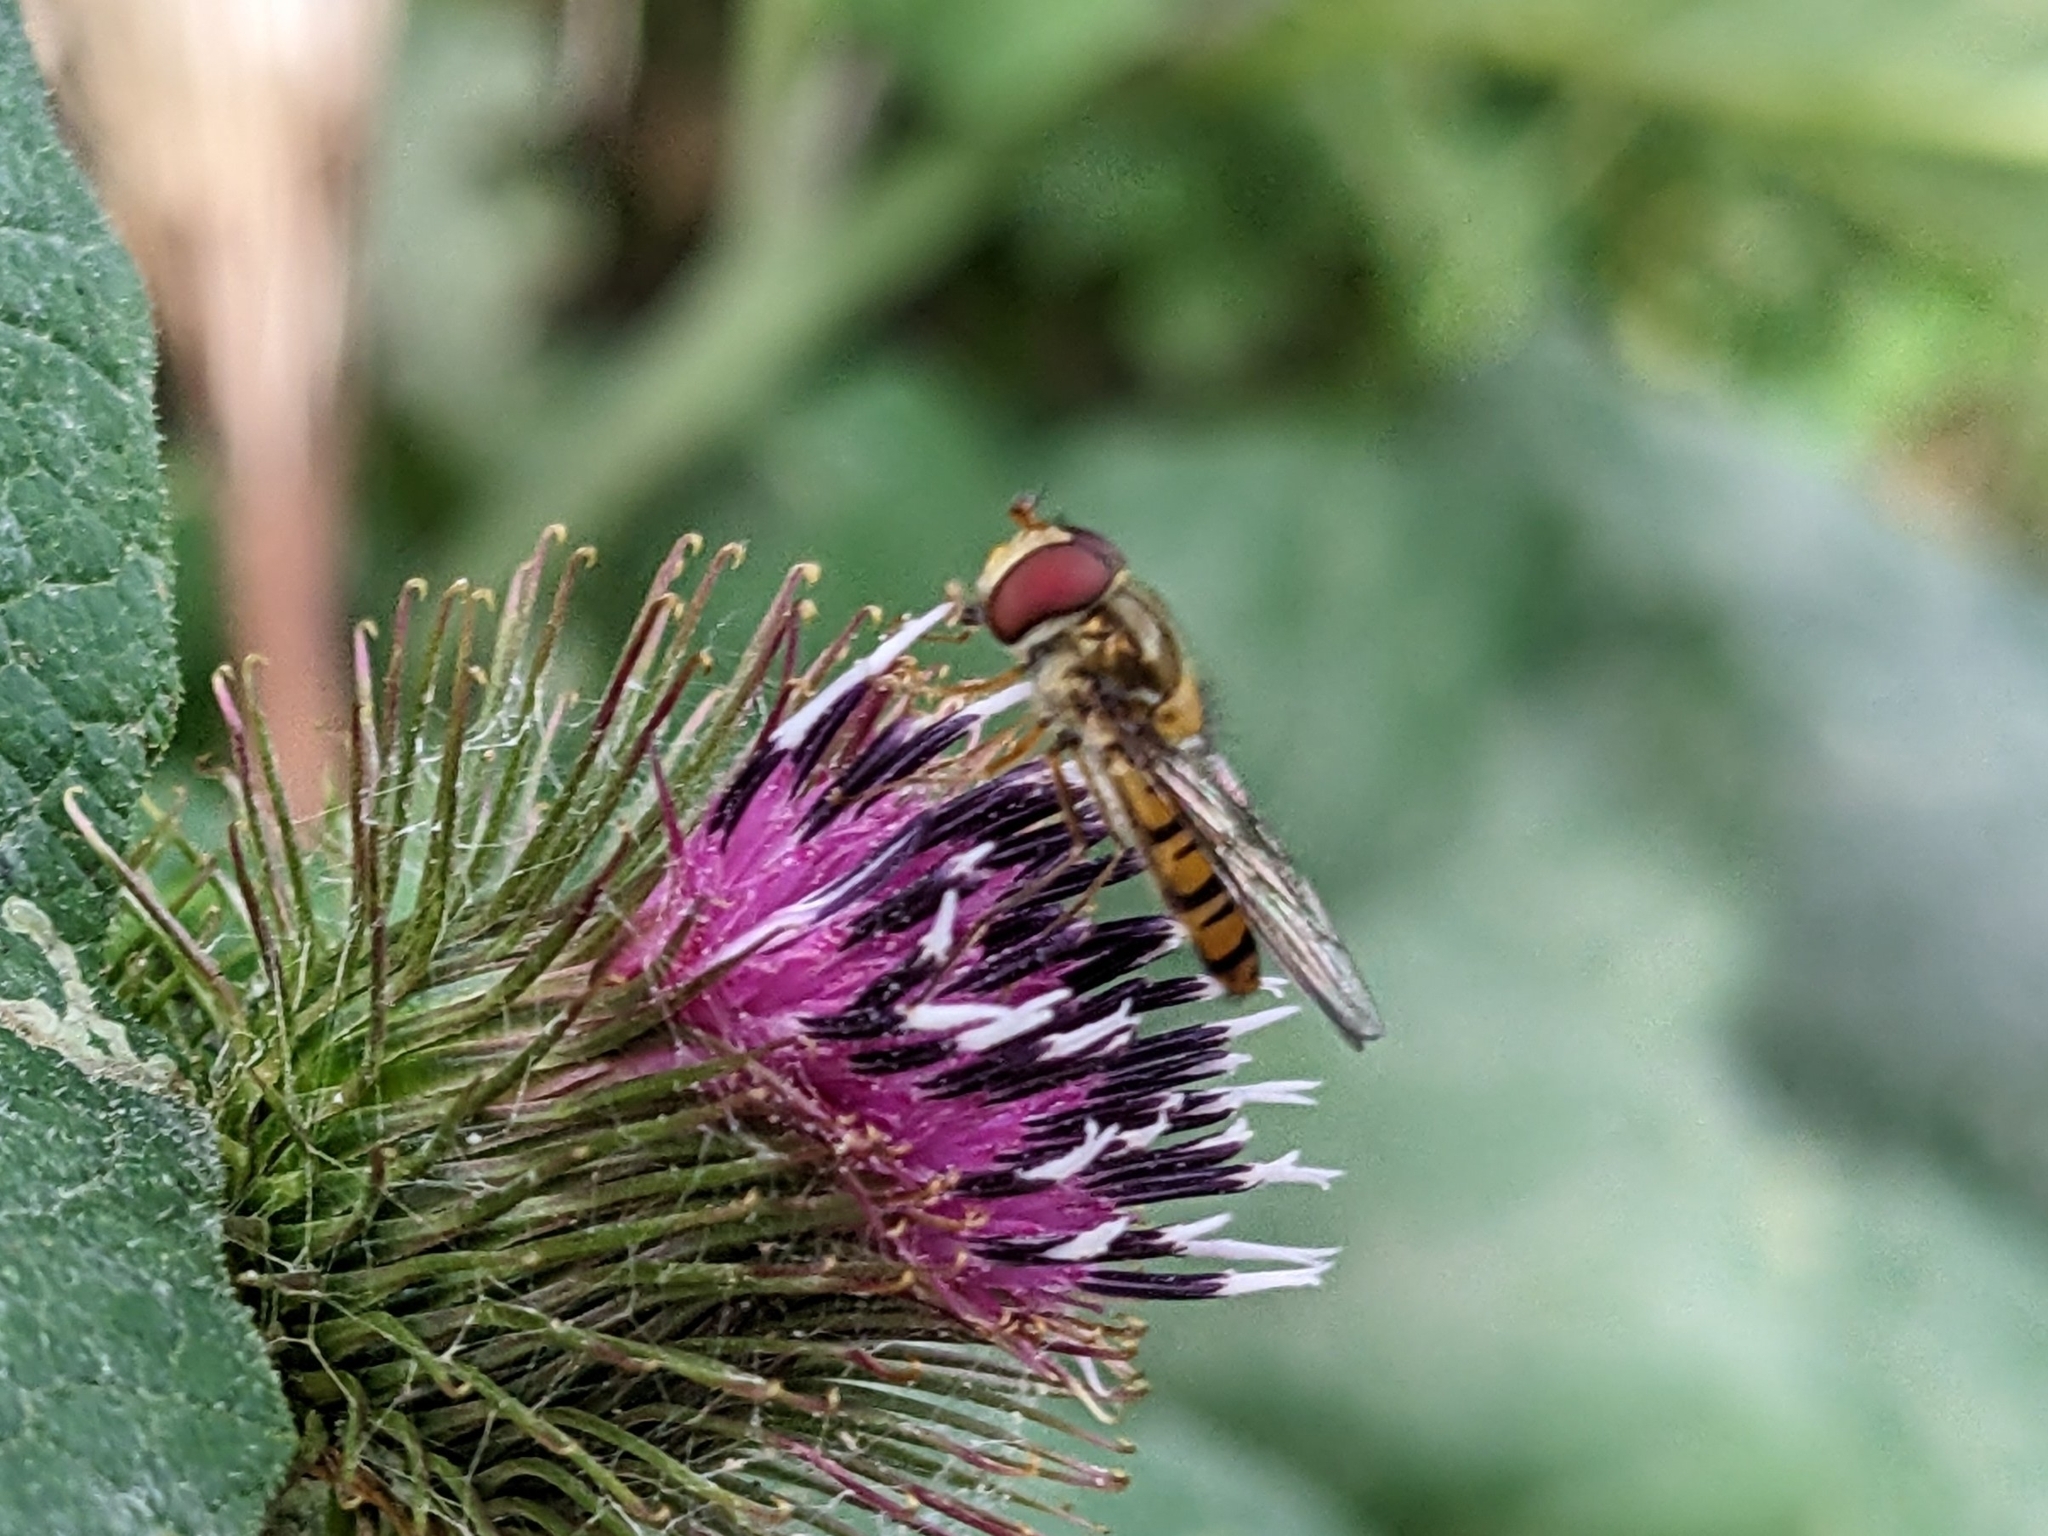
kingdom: Animalia
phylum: Arthropoda
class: Insecta
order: Diptera
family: Syrphidae
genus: Episyrphus
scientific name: Episyrphus balteatus
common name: Marmalade hoverfly
